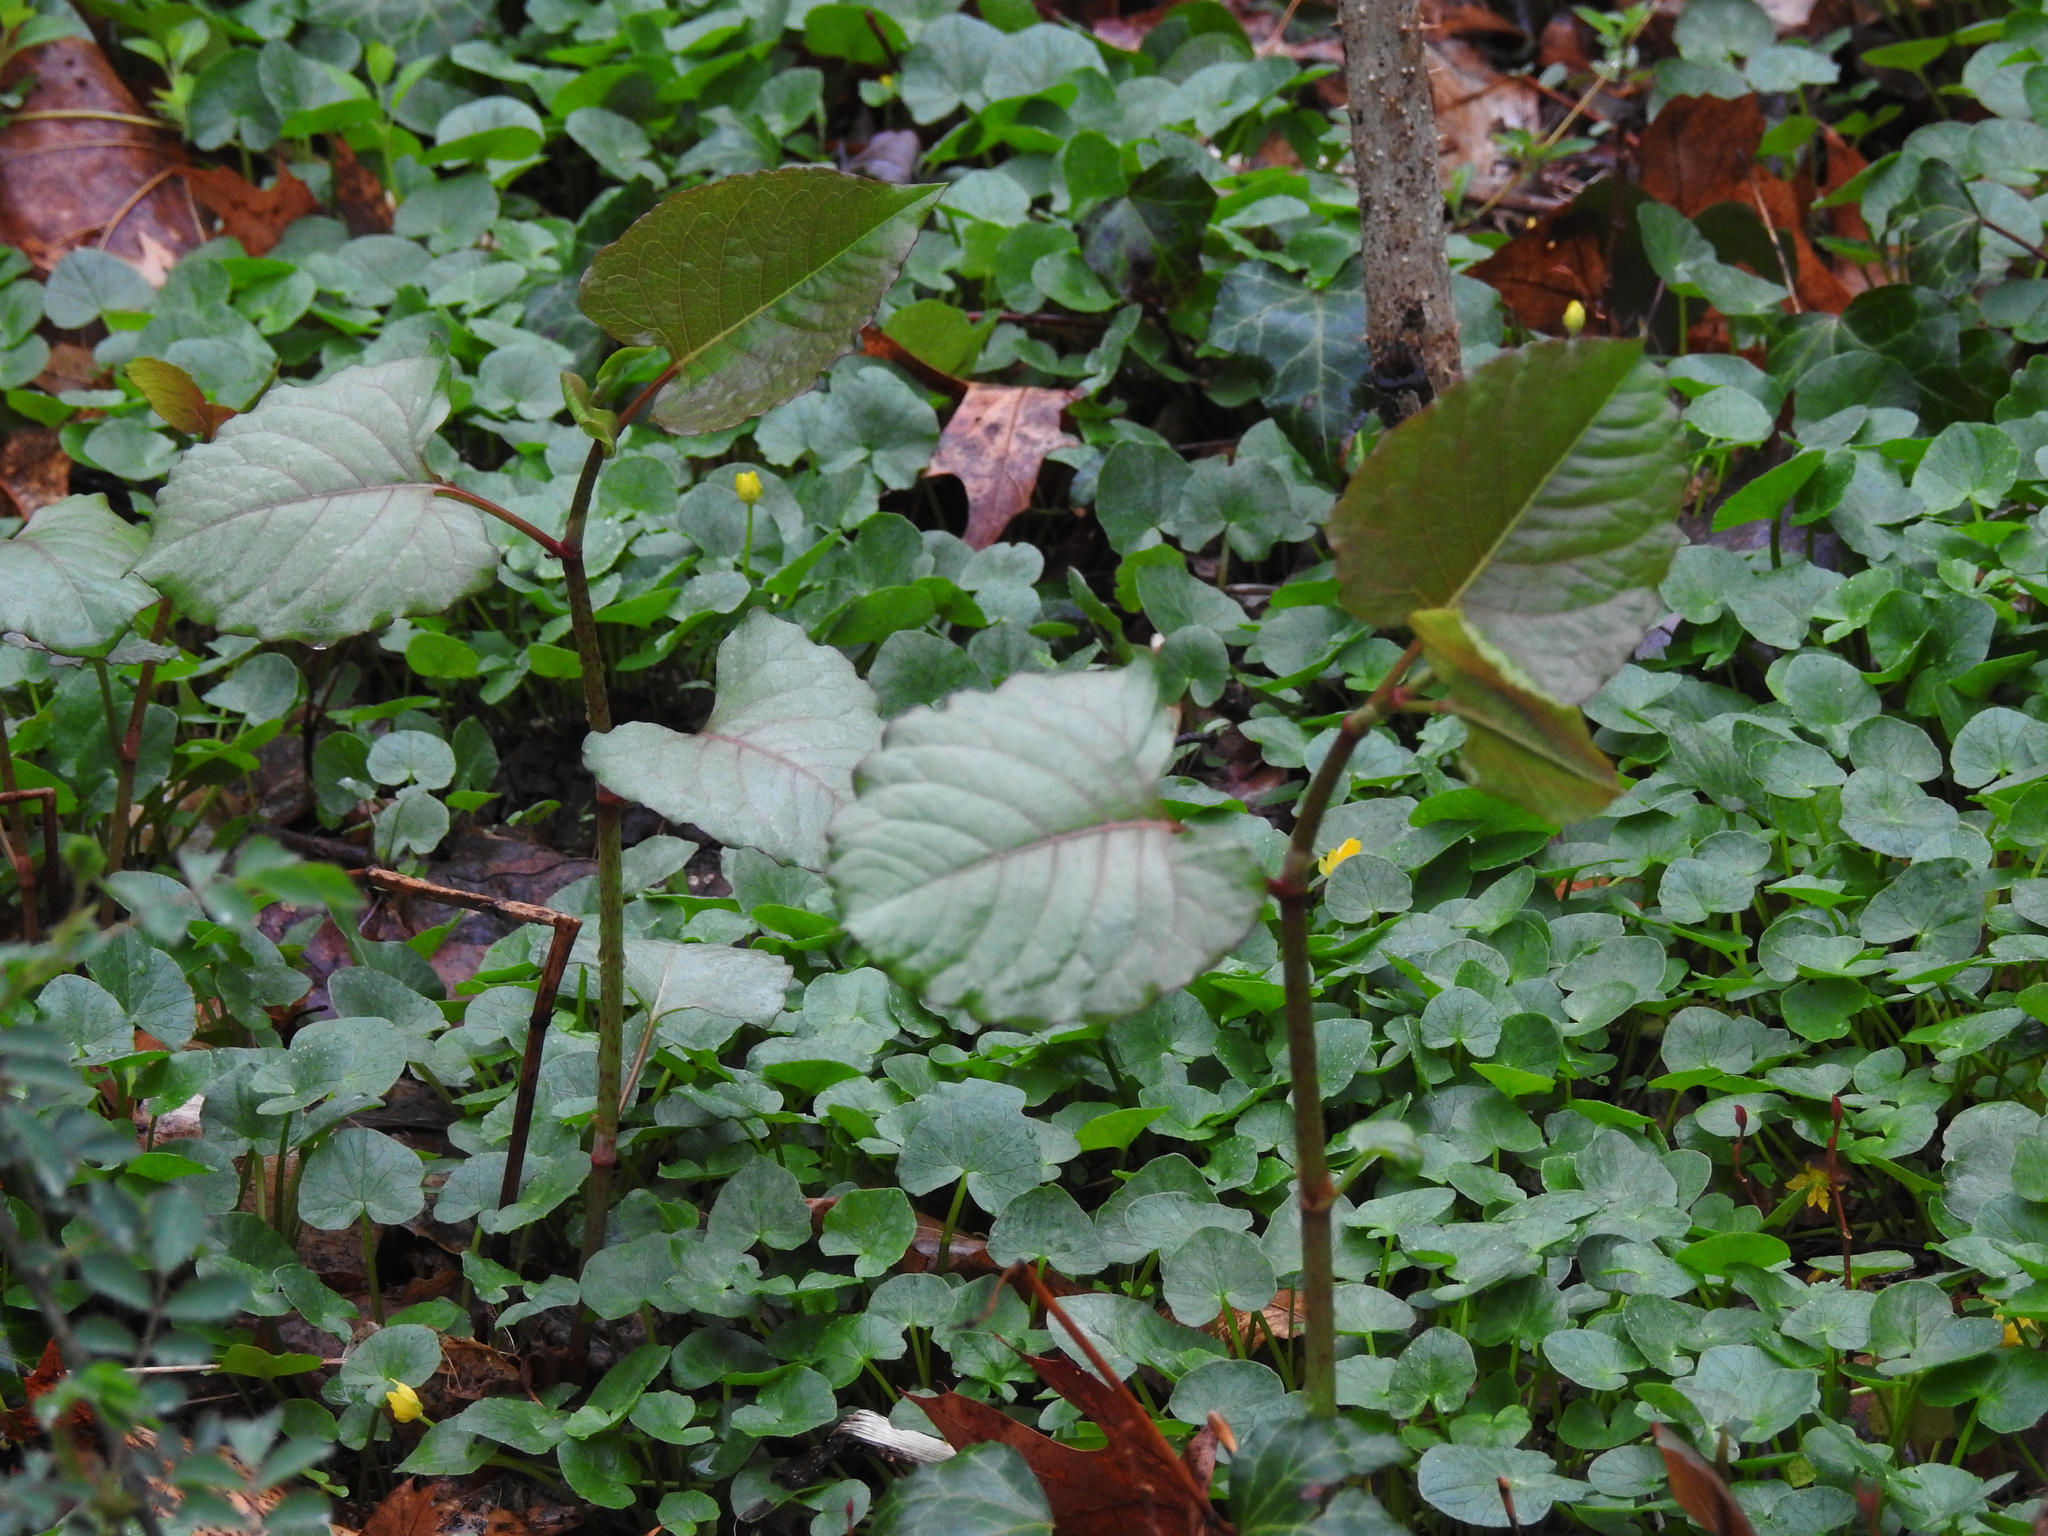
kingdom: Plantae
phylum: Tracheophyta
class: Magnoliopsida
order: Caryophyllales
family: Polygonaceae
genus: Reynoutria
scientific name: Reynoutria japonica
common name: Japanese knotweed
